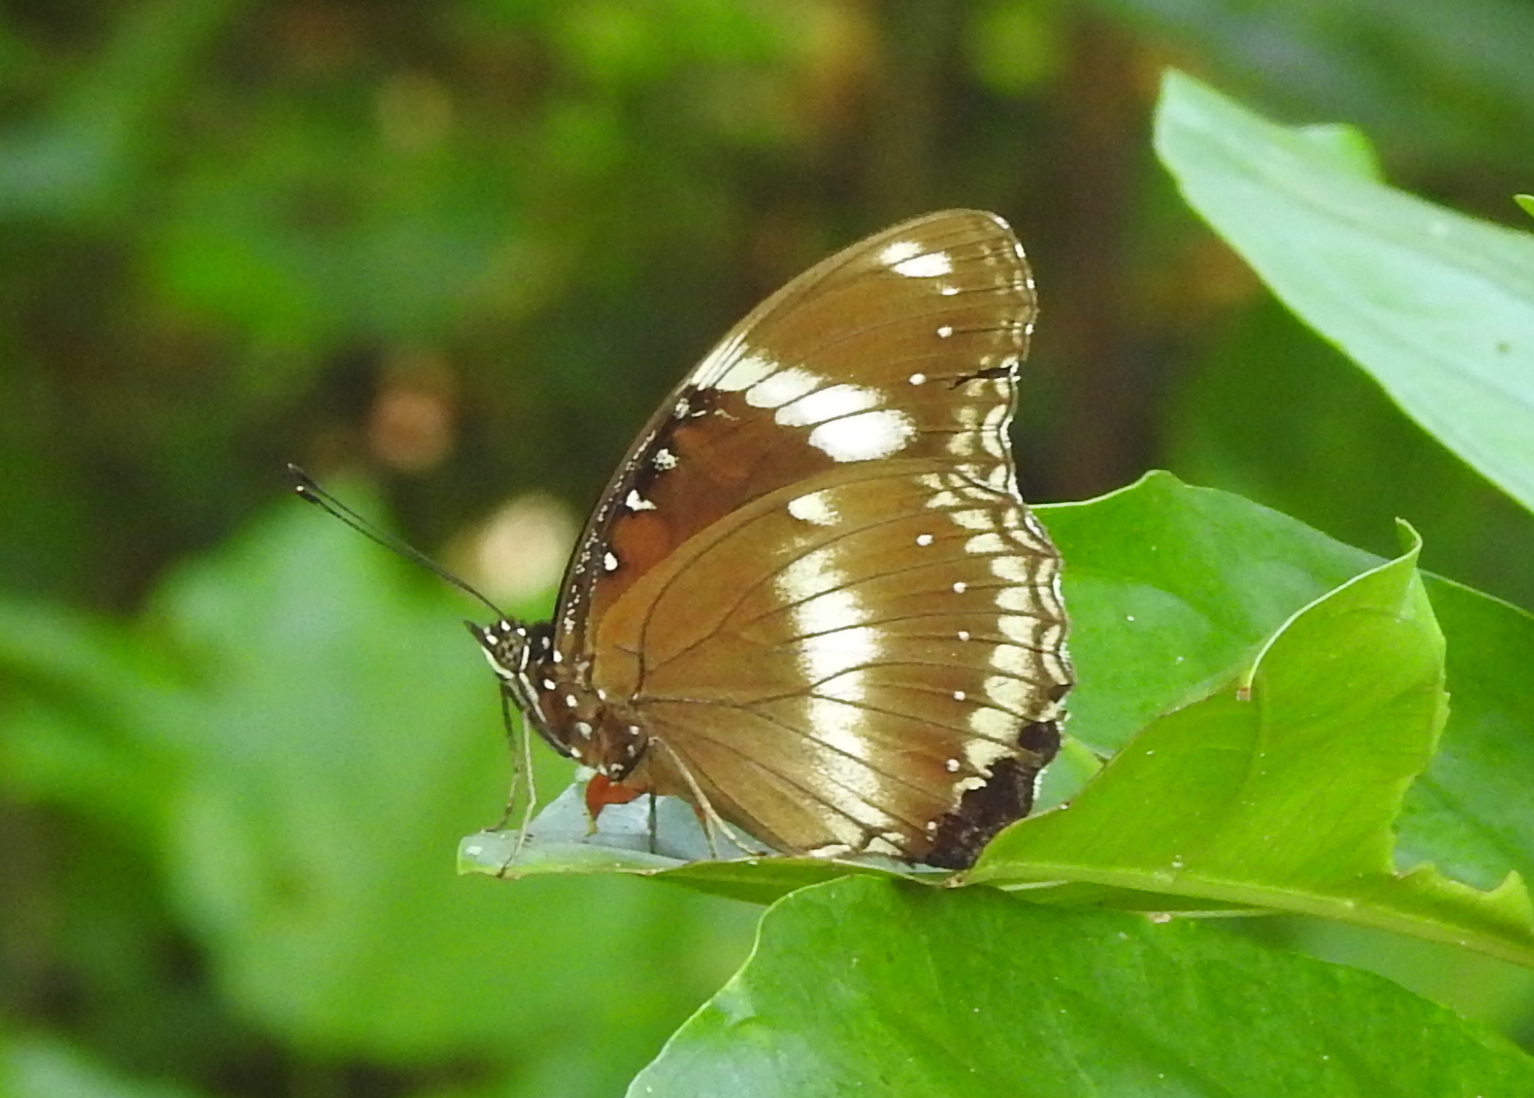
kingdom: Animalia
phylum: Arthropoda
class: Insecta
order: Lepidoptera
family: Nymphalidae
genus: Hypolimnas
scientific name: Hypolimnas bolina
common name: Great eggfly
